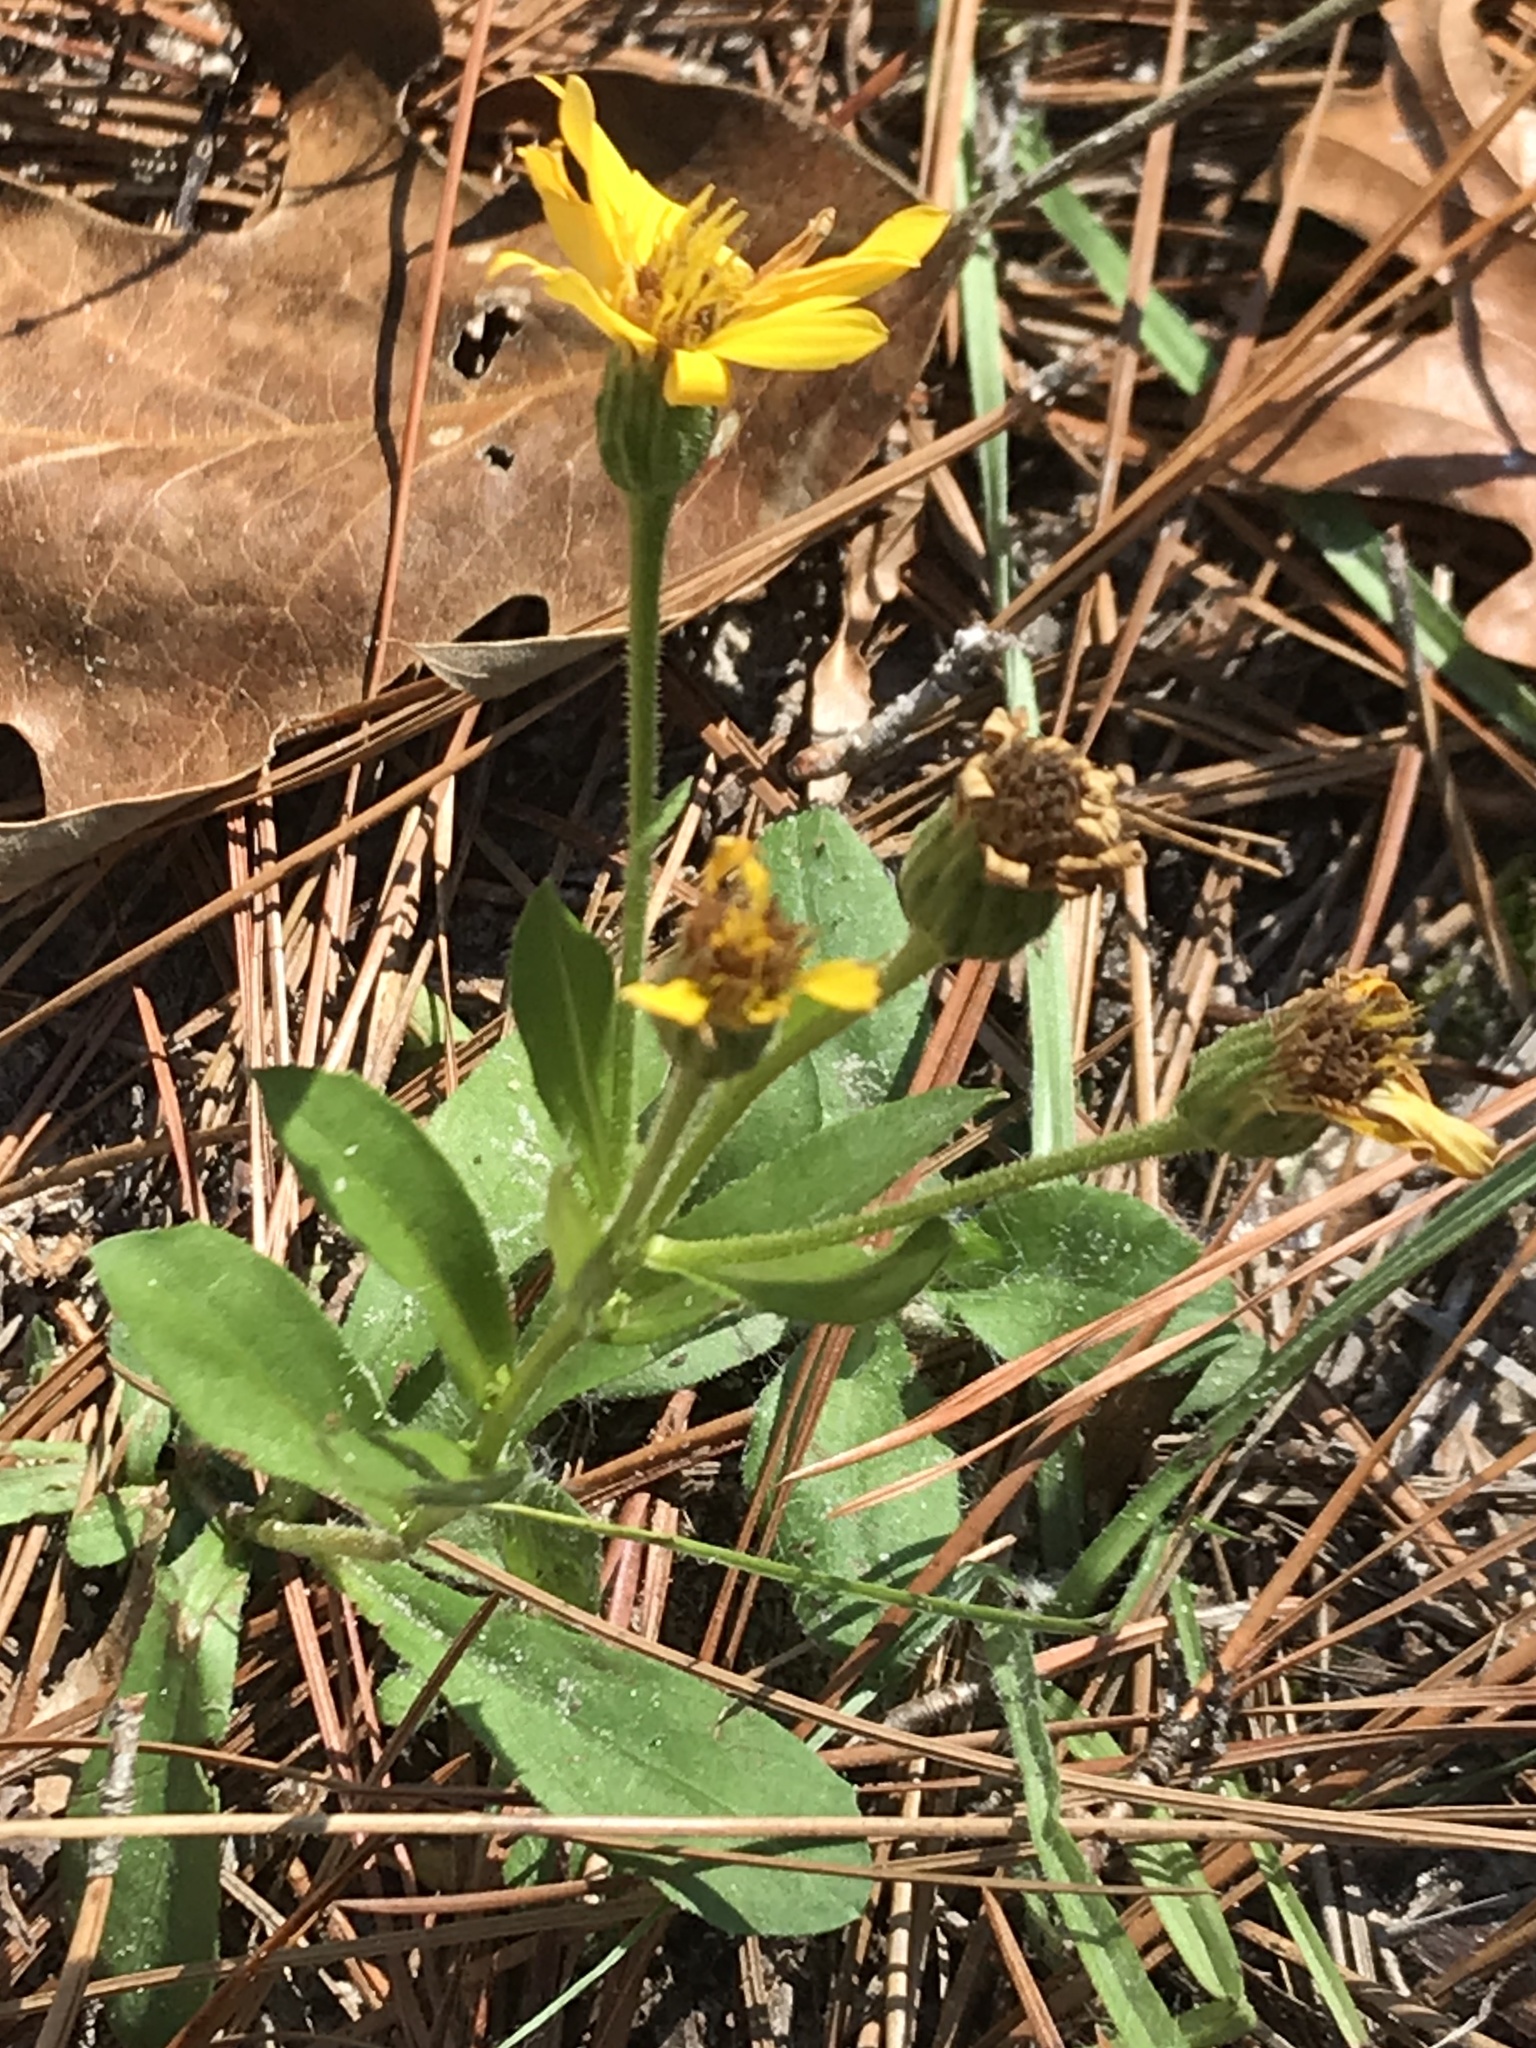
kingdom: Plantae
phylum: Tracheophyta
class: Magnoliopsida
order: Asterales
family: Asteraceae
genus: Chrysopsis
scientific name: Chrysopsis mariana
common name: Maryland golden-aster
